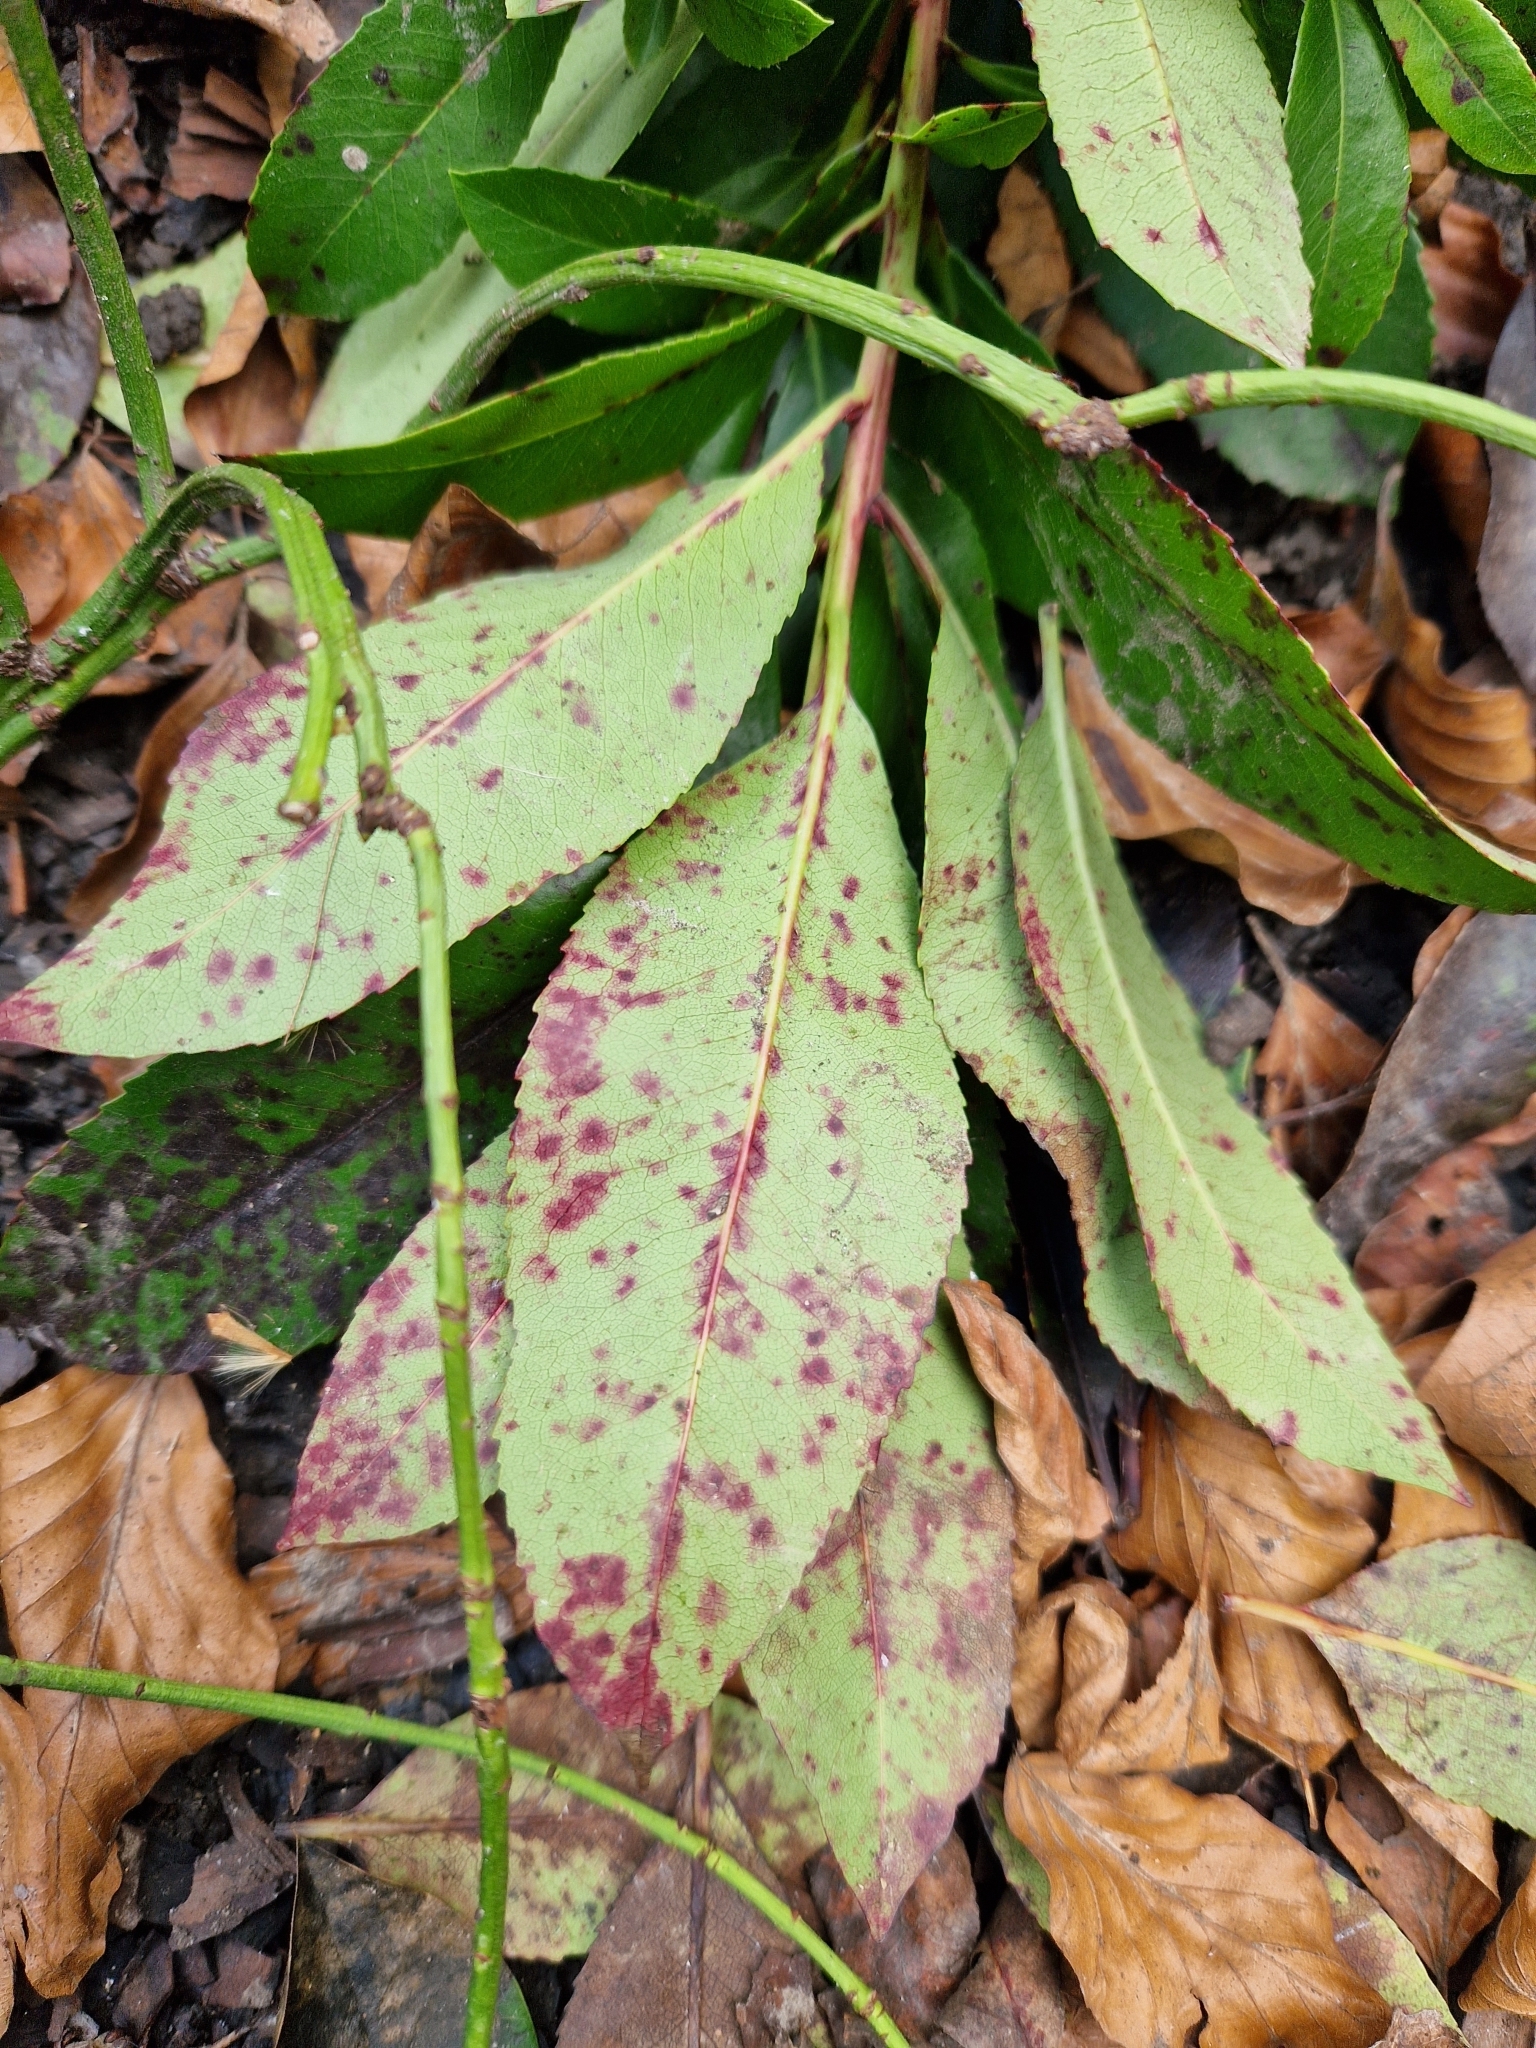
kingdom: Fungi
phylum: Ascomycota
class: Dothideomycetes
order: Mycosphaerellales
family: Mycosphaerellaceae
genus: Ruptoseptoria
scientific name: Ruptoseptoria unedonis
